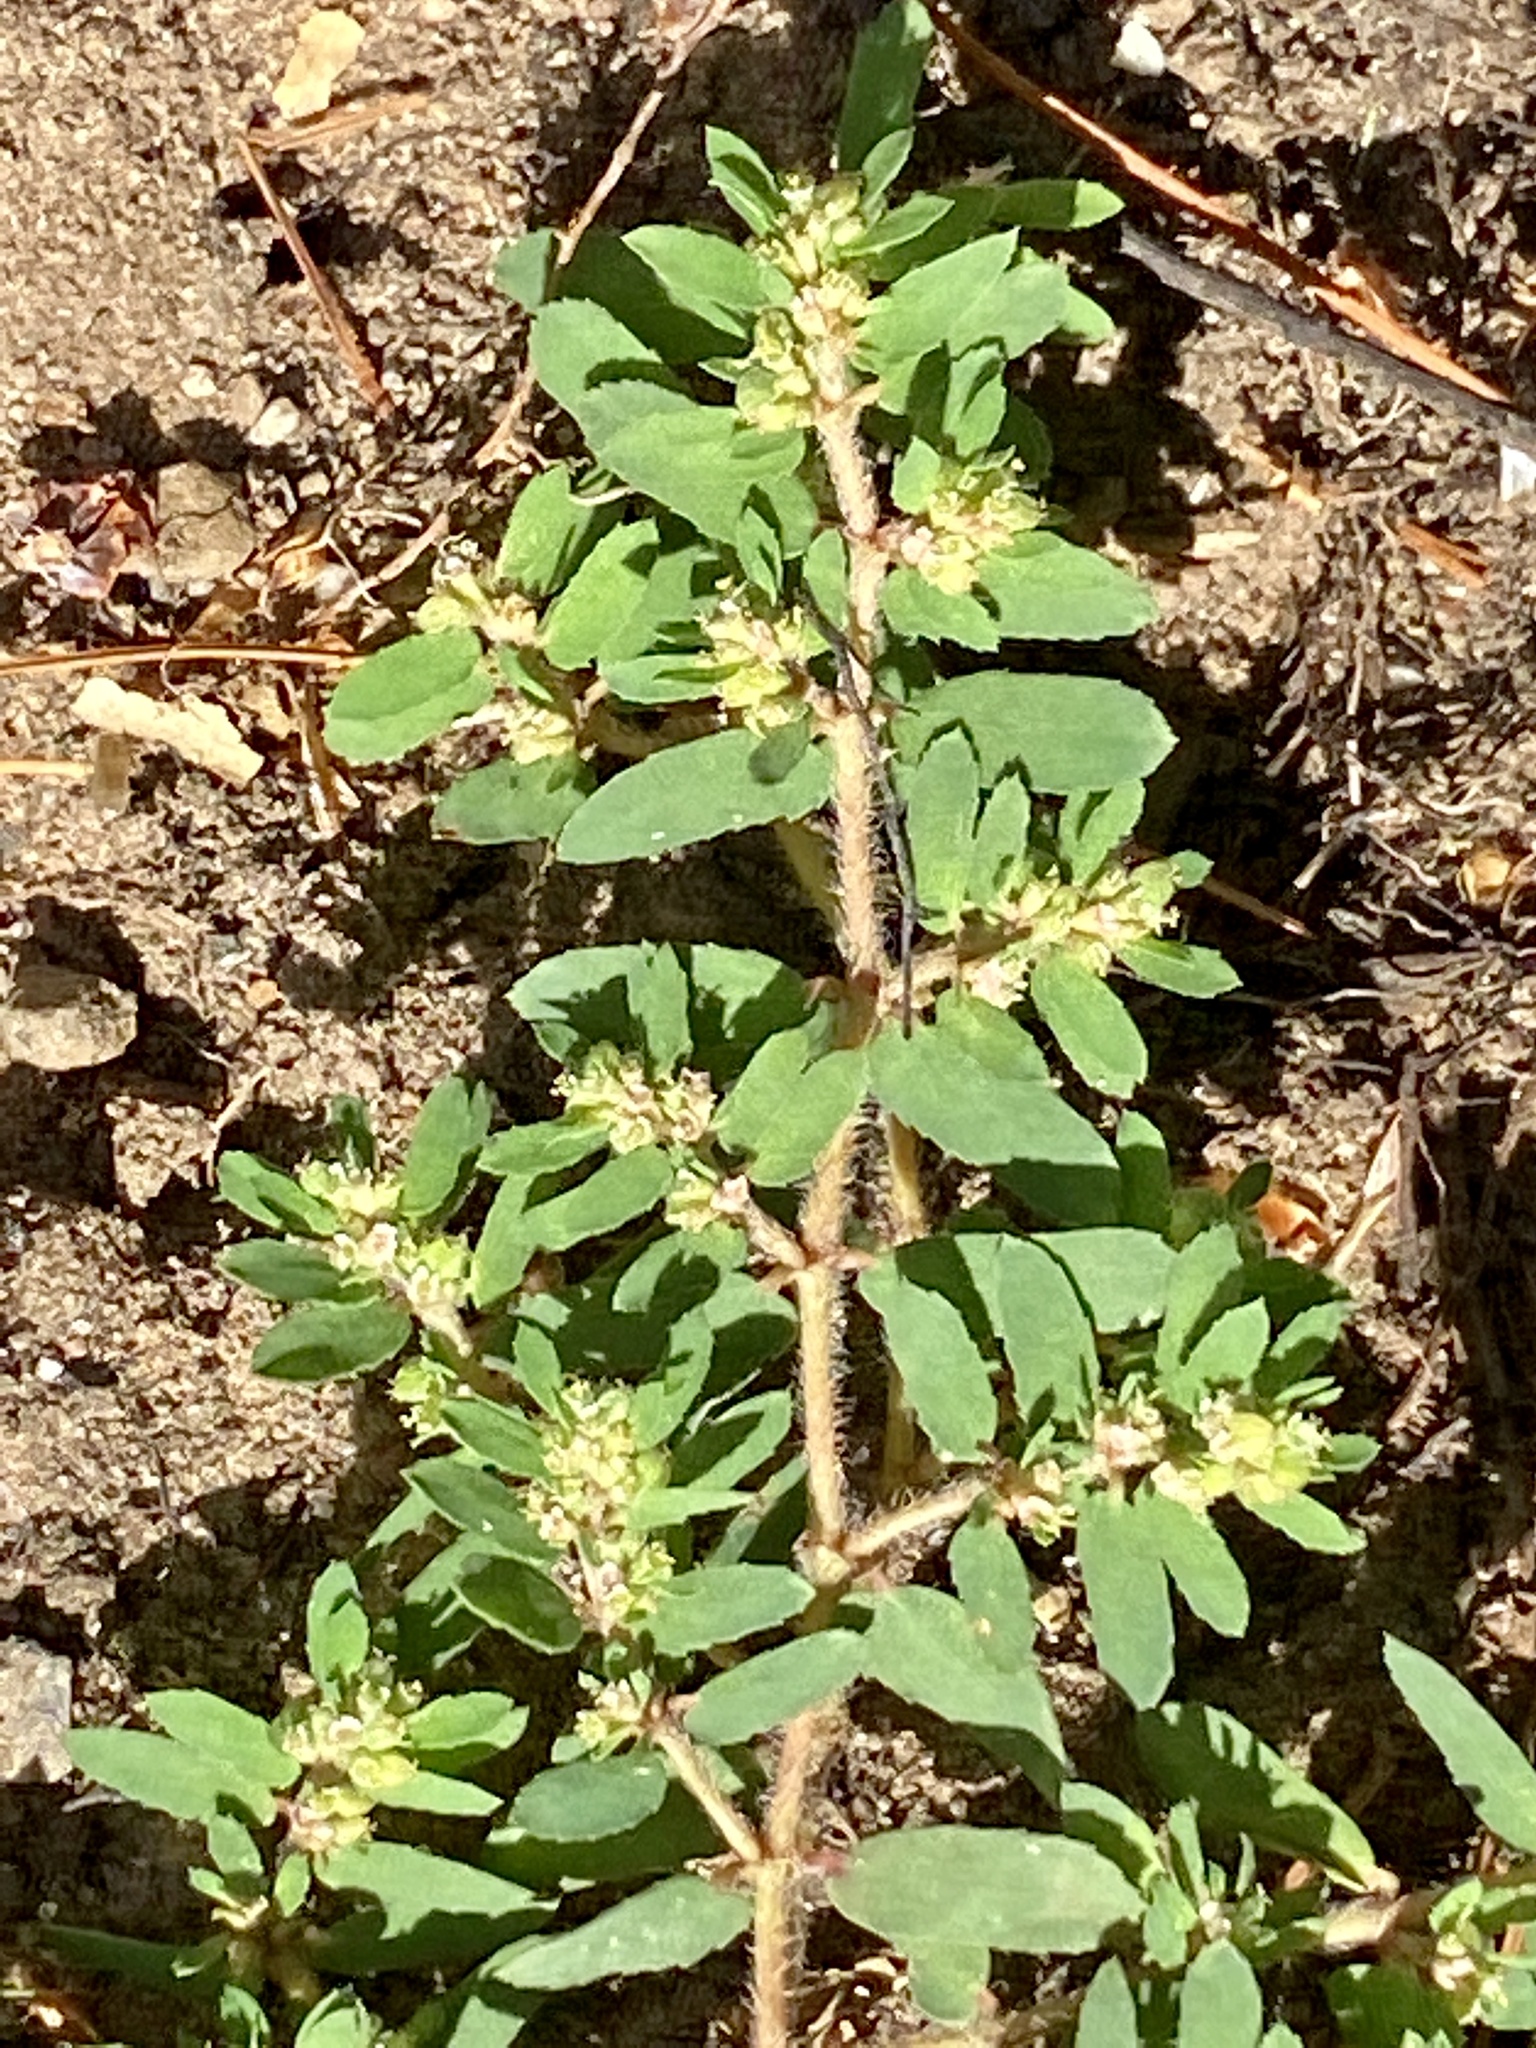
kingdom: Plantae
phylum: Tracheophyta
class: Magnoliopsida
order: Malpighiales
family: Euphorbiaceae
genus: Euphorbia
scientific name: Euphorbia maculata
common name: Spotted spurge
